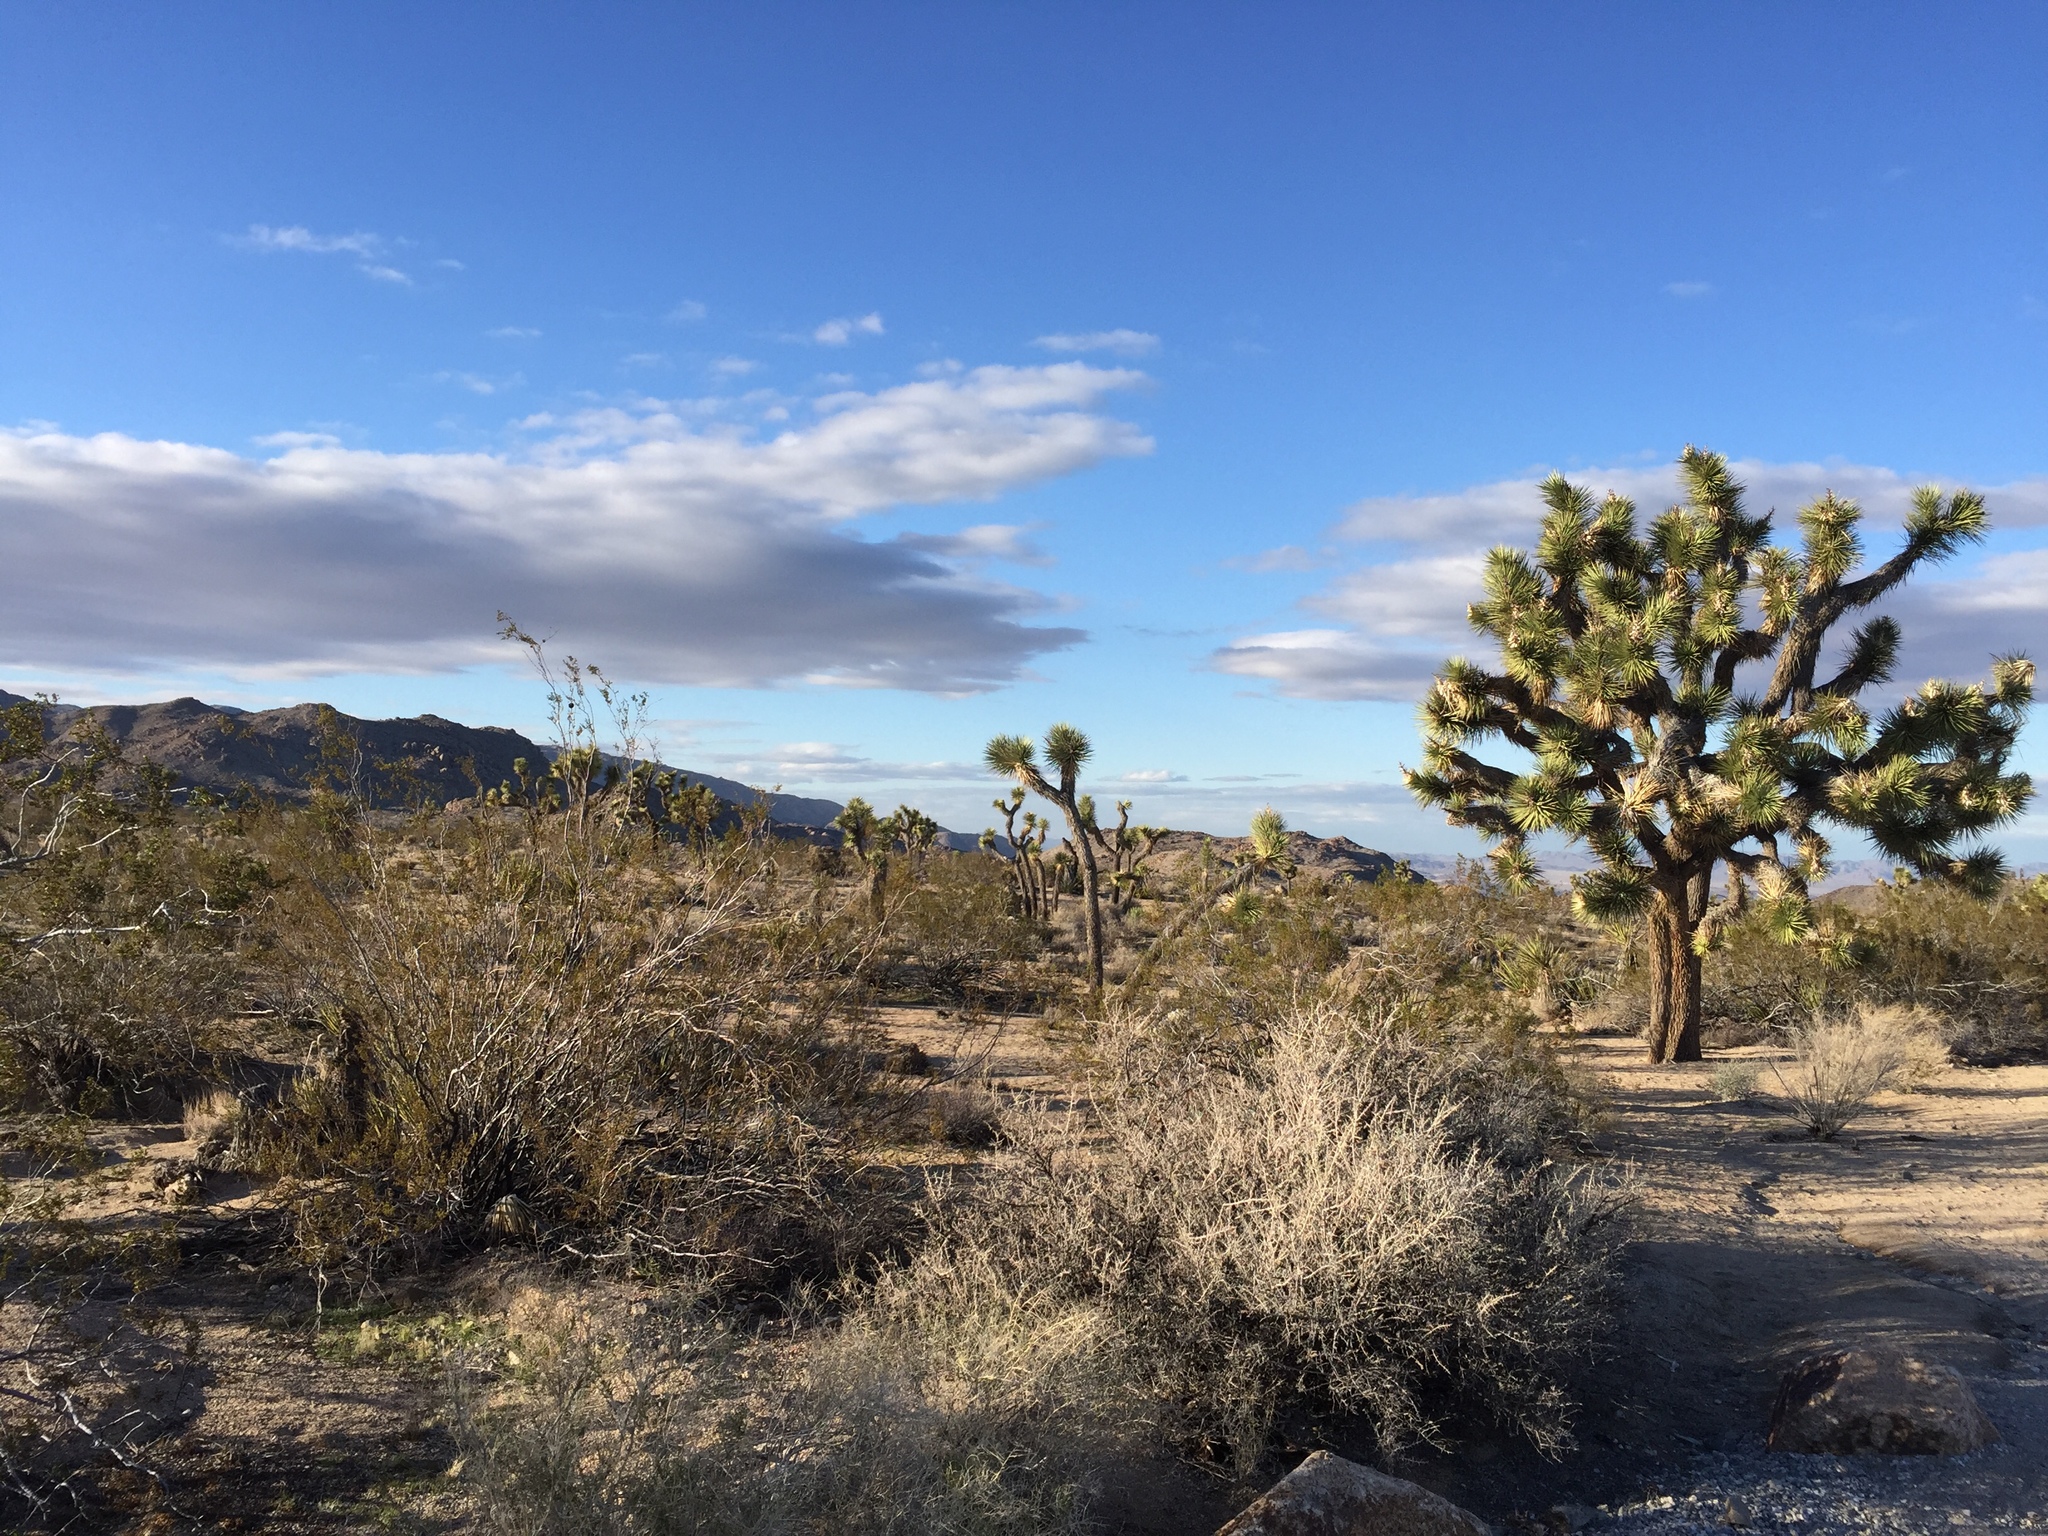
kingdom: Plantae
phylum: Tracheophyta
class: Liliopsida
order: Asparagales
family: Asparagaceae
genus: Yucca
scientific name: Yucca brevifolia
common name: Joshua tree
